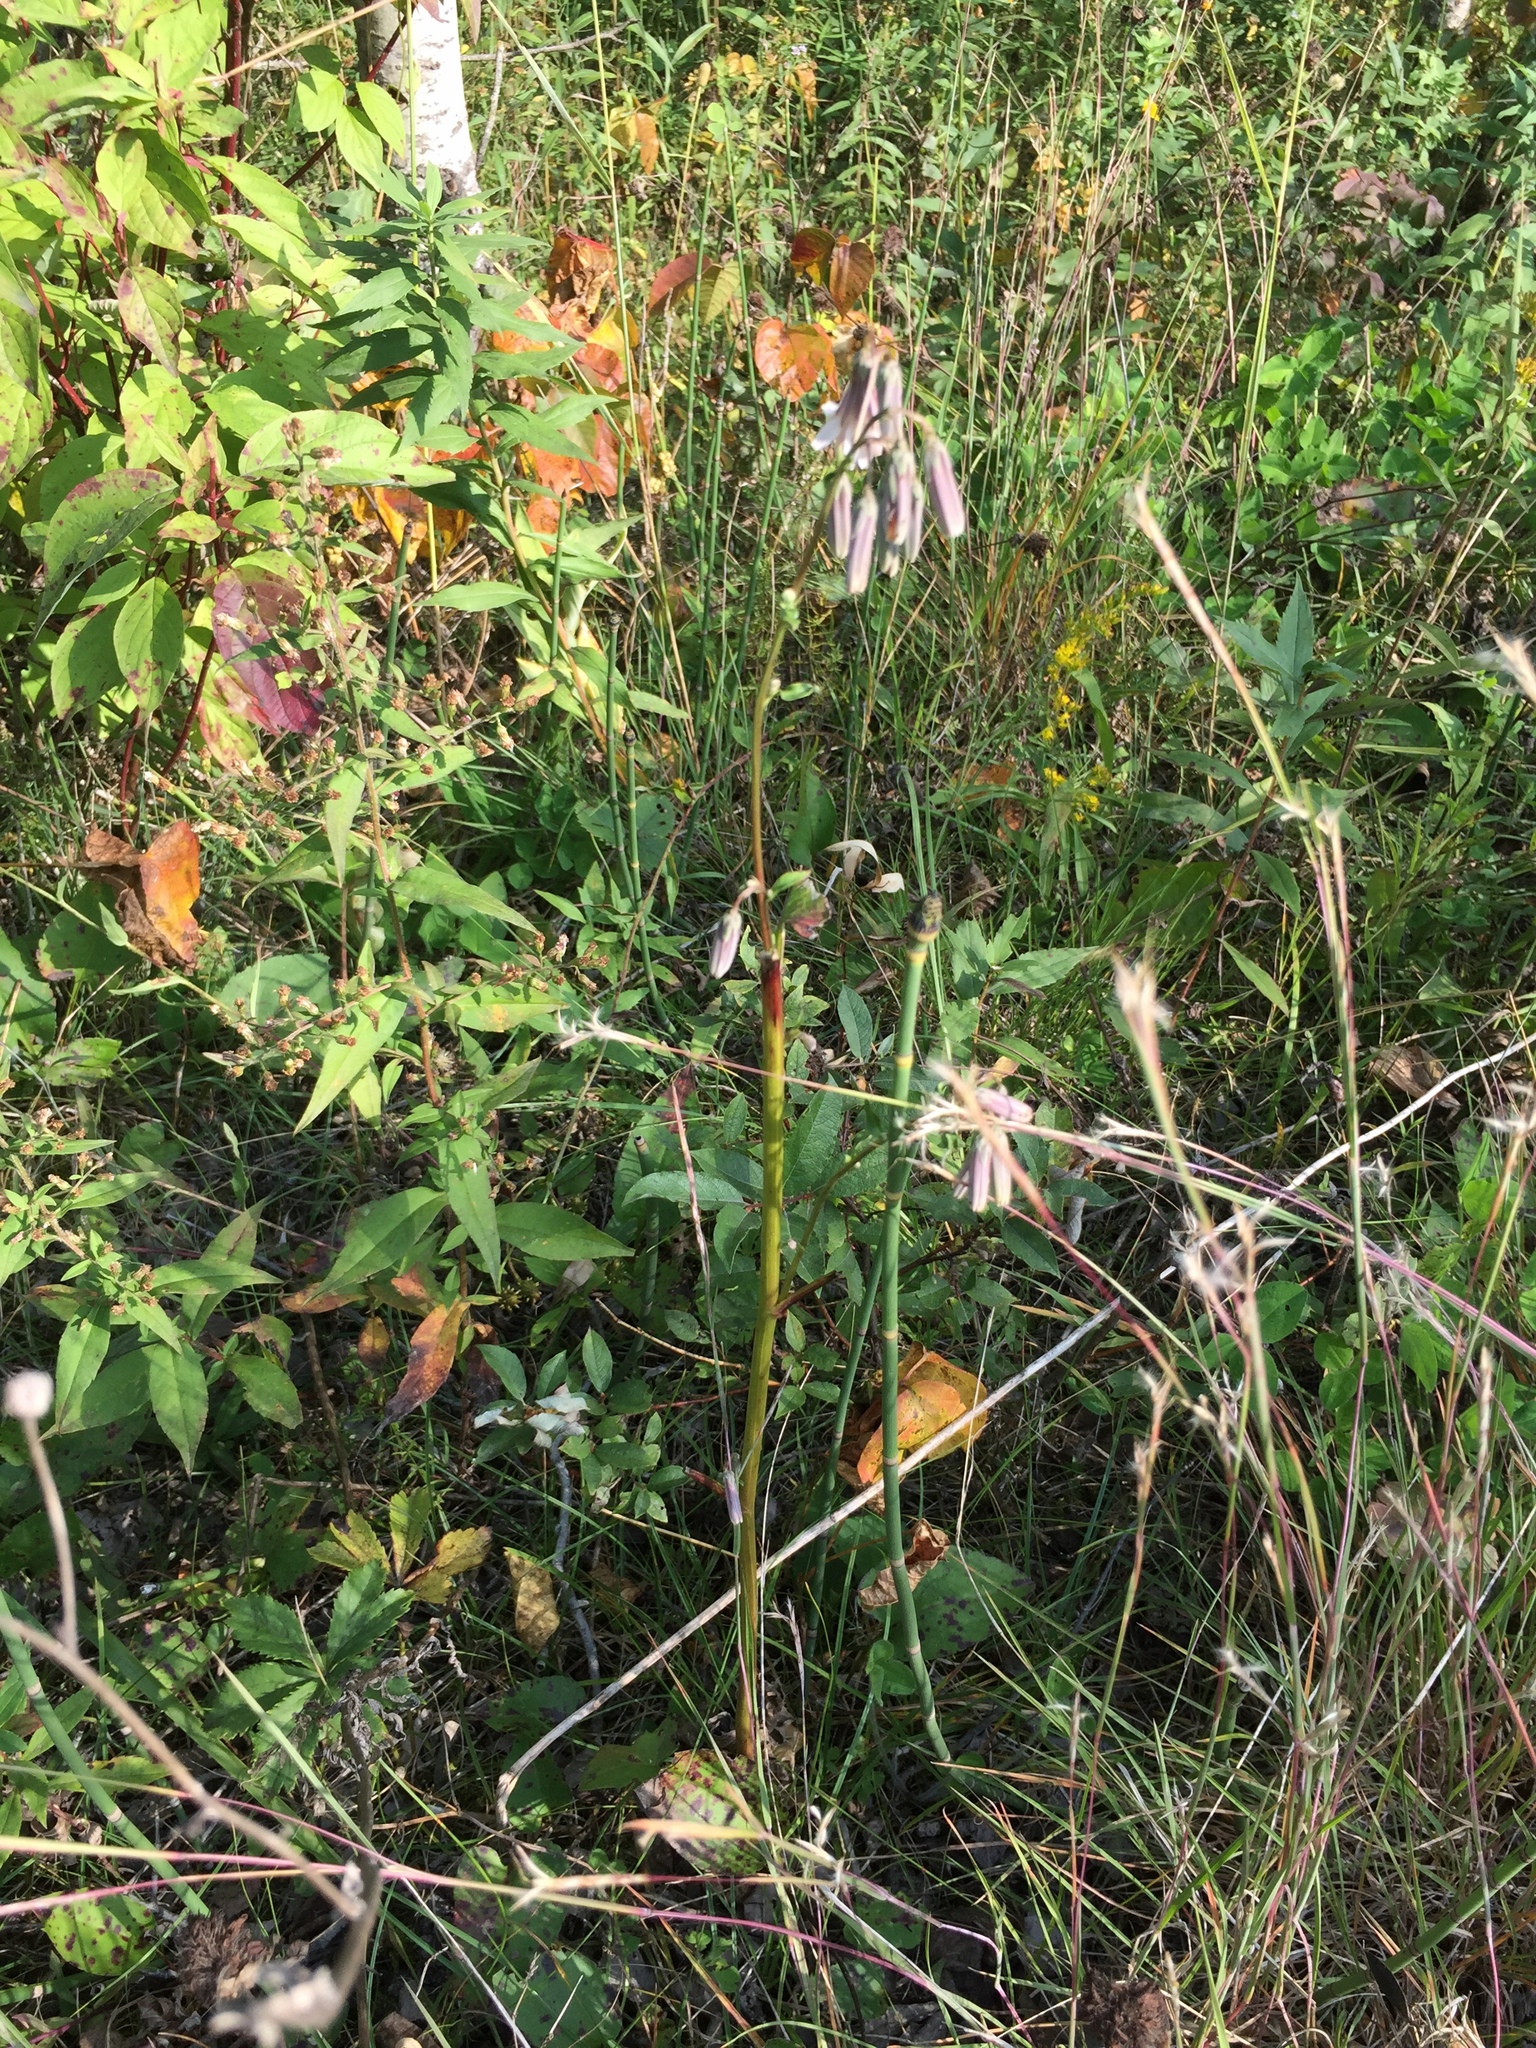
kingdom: Plantae
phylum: Tracheophyta
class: Magnoliopsida
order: Asterales
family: Asteraceae
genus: Nabalus
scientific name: Nabalus albus
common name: White rattlesnakeroot
